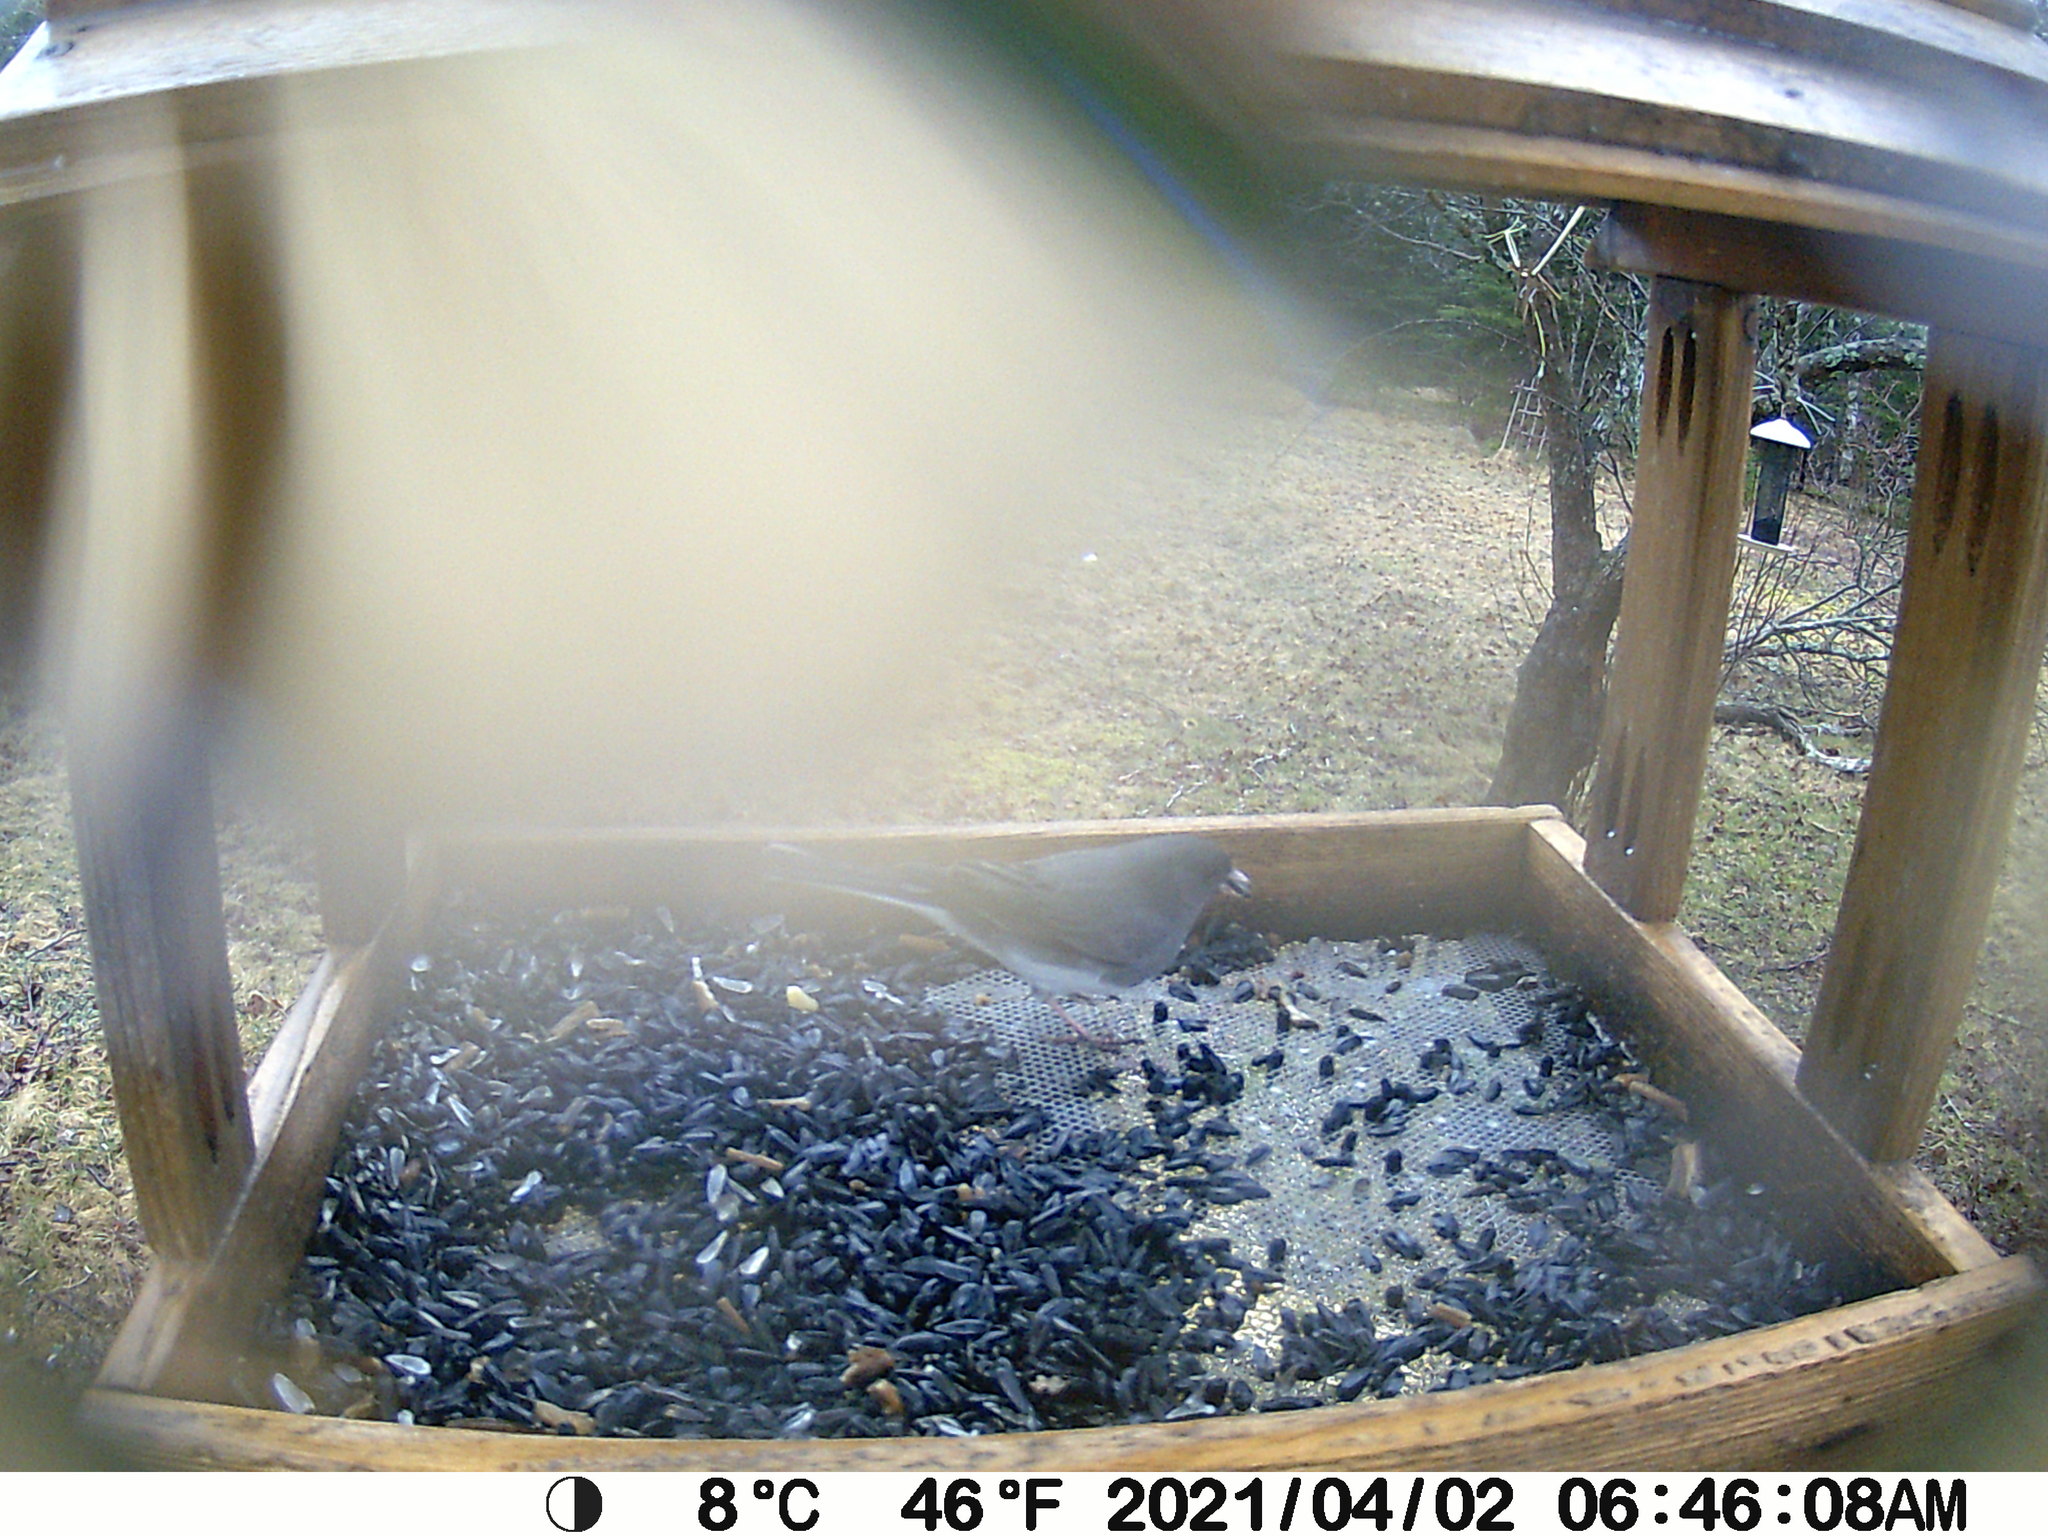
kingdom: Animalia
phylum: Chordata
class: Aves
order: Passeriformes
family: Passerellidae
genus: Junco
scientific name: Junco hyemalis
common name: Dark-eyed junco
